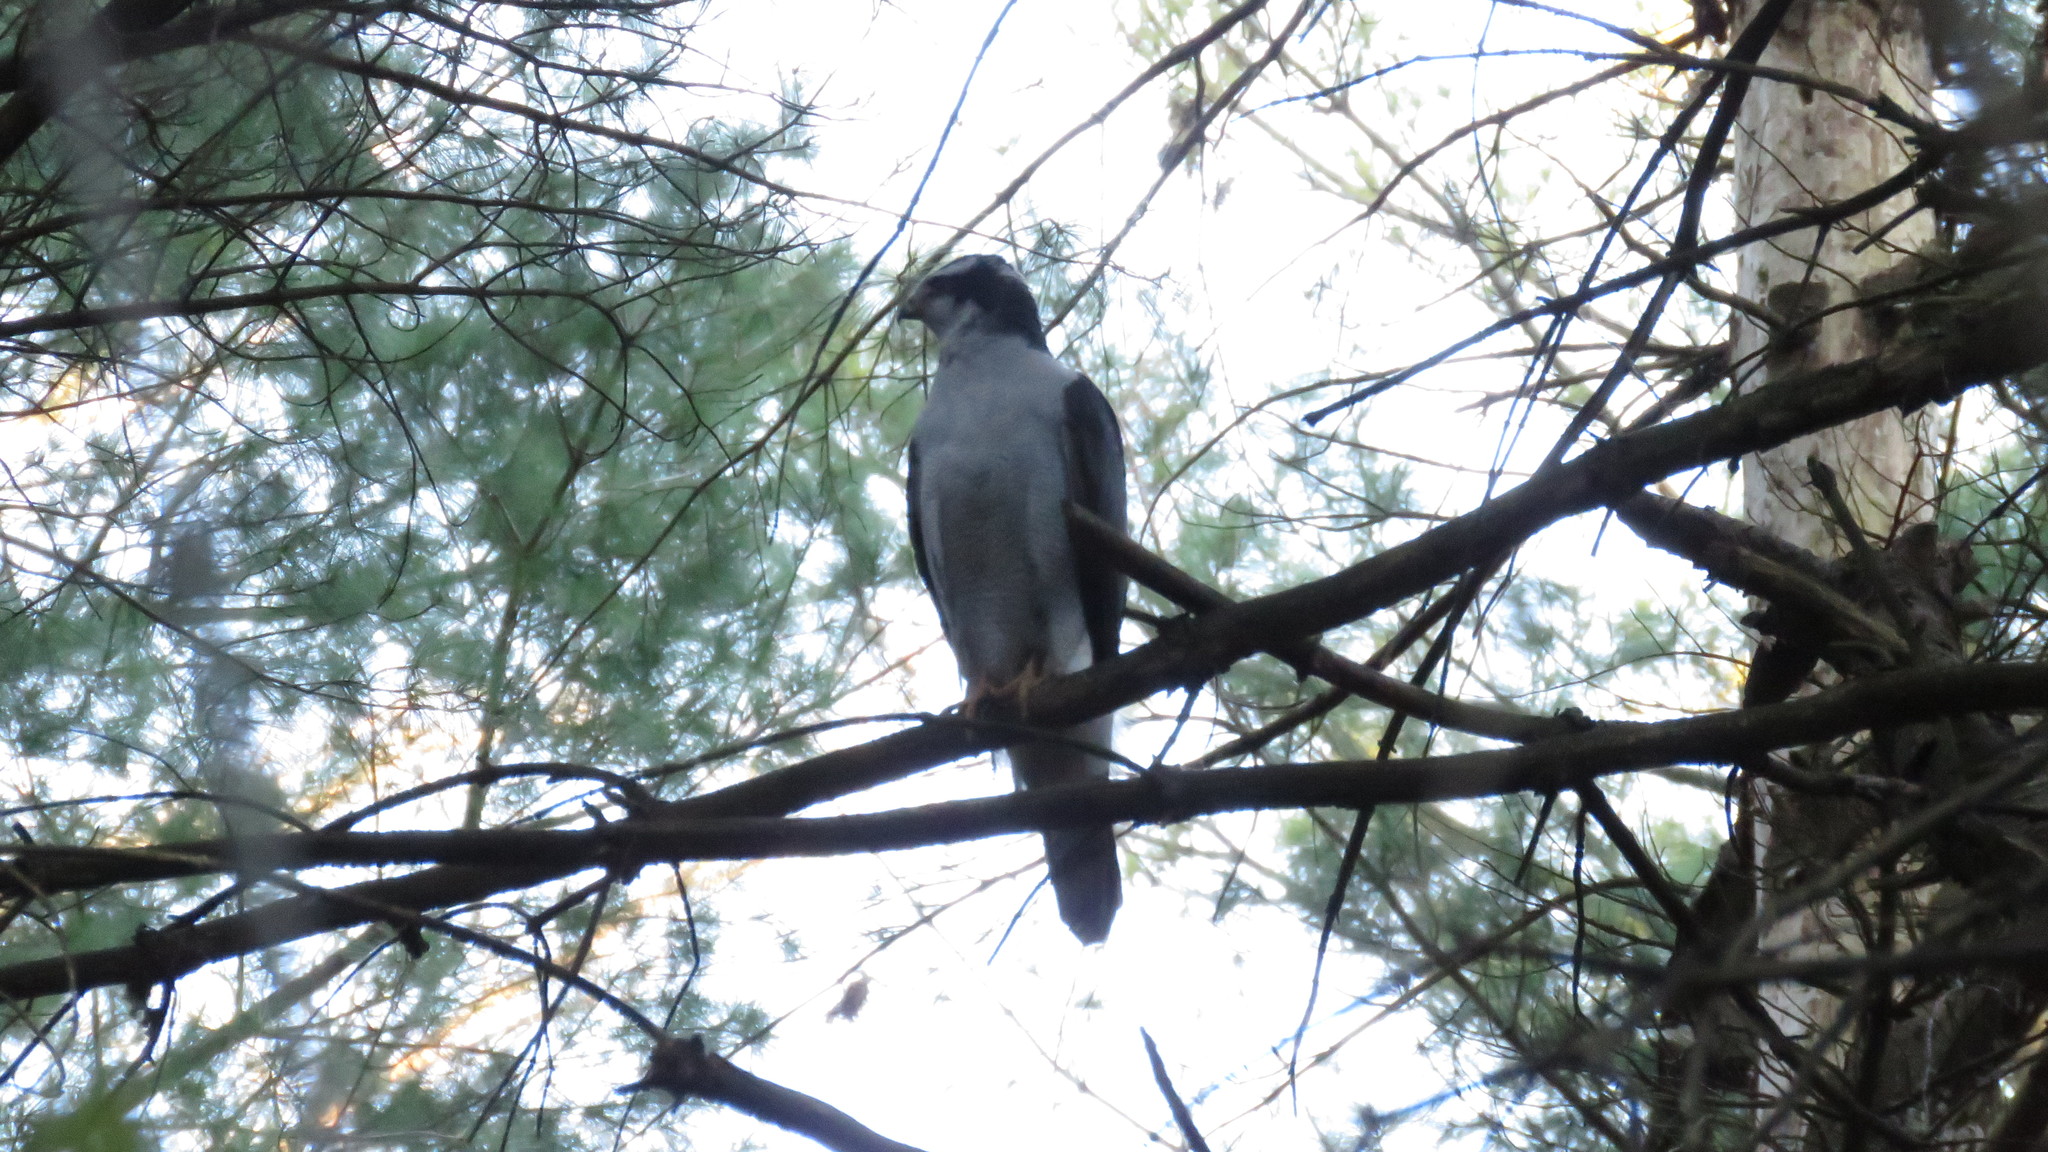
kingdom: Animalia
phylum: Chordata
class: Aves
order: Accipitriformes
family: Accipitridae
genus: Accipiter
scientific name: Accipiter gentilis
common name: Northern goshawk
